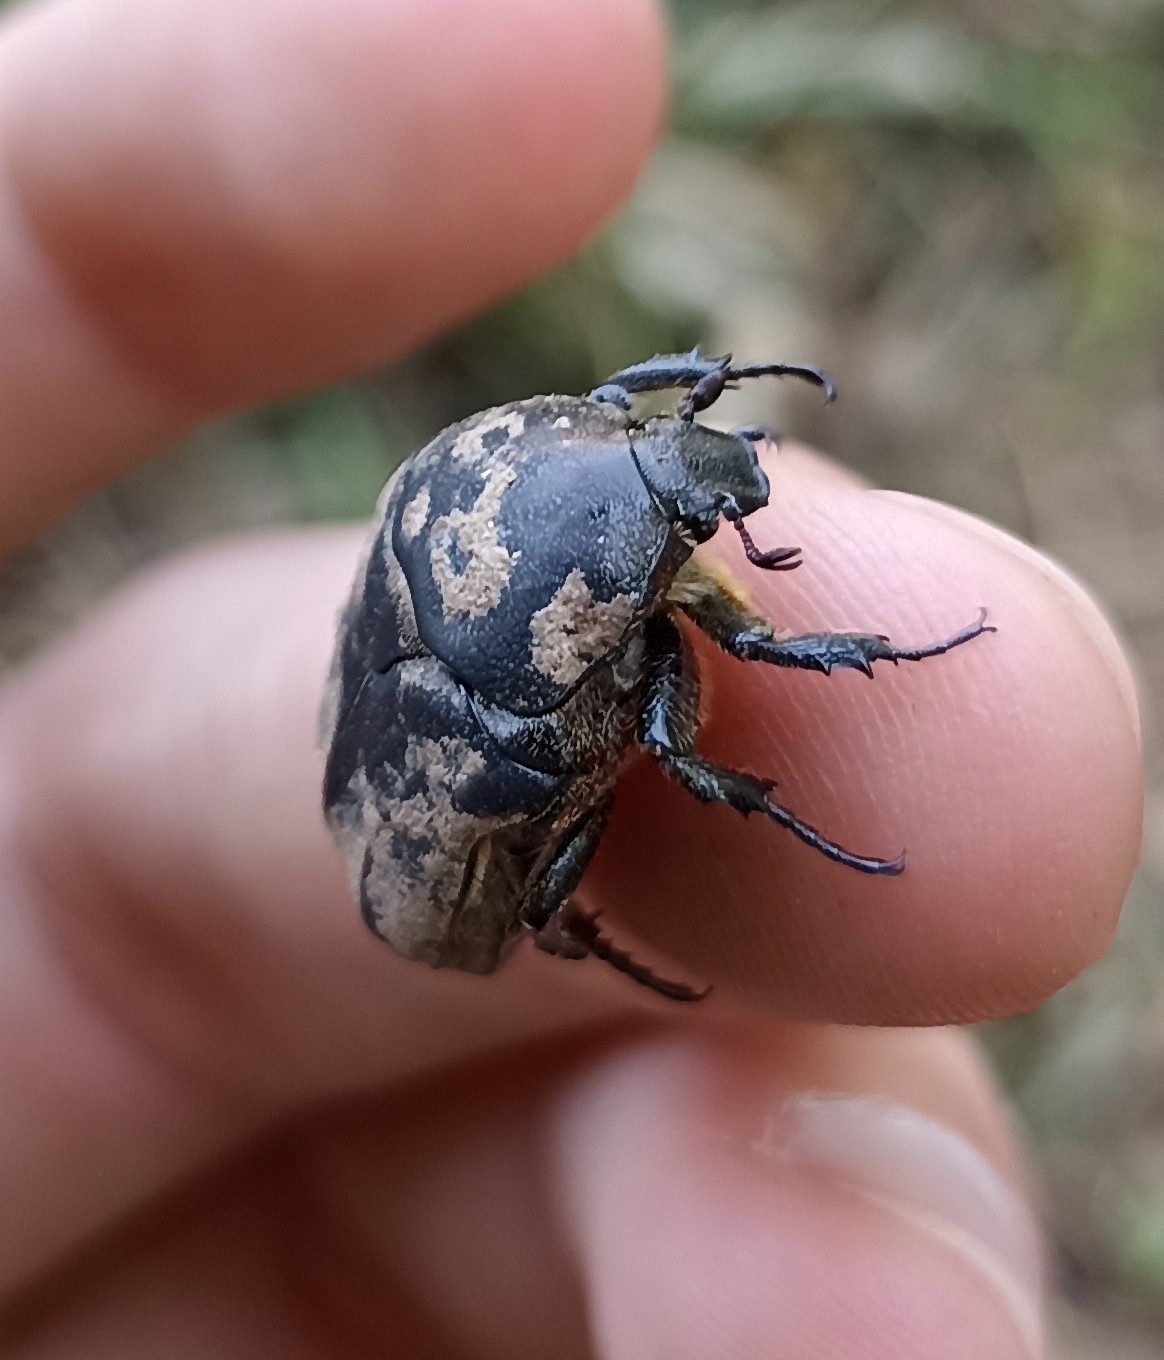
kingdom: Animalia
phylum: Arthropoda
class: Insecta
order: Coleoptera
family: Scarabaeidae
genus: Protaetia
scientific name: Protaetia morio
